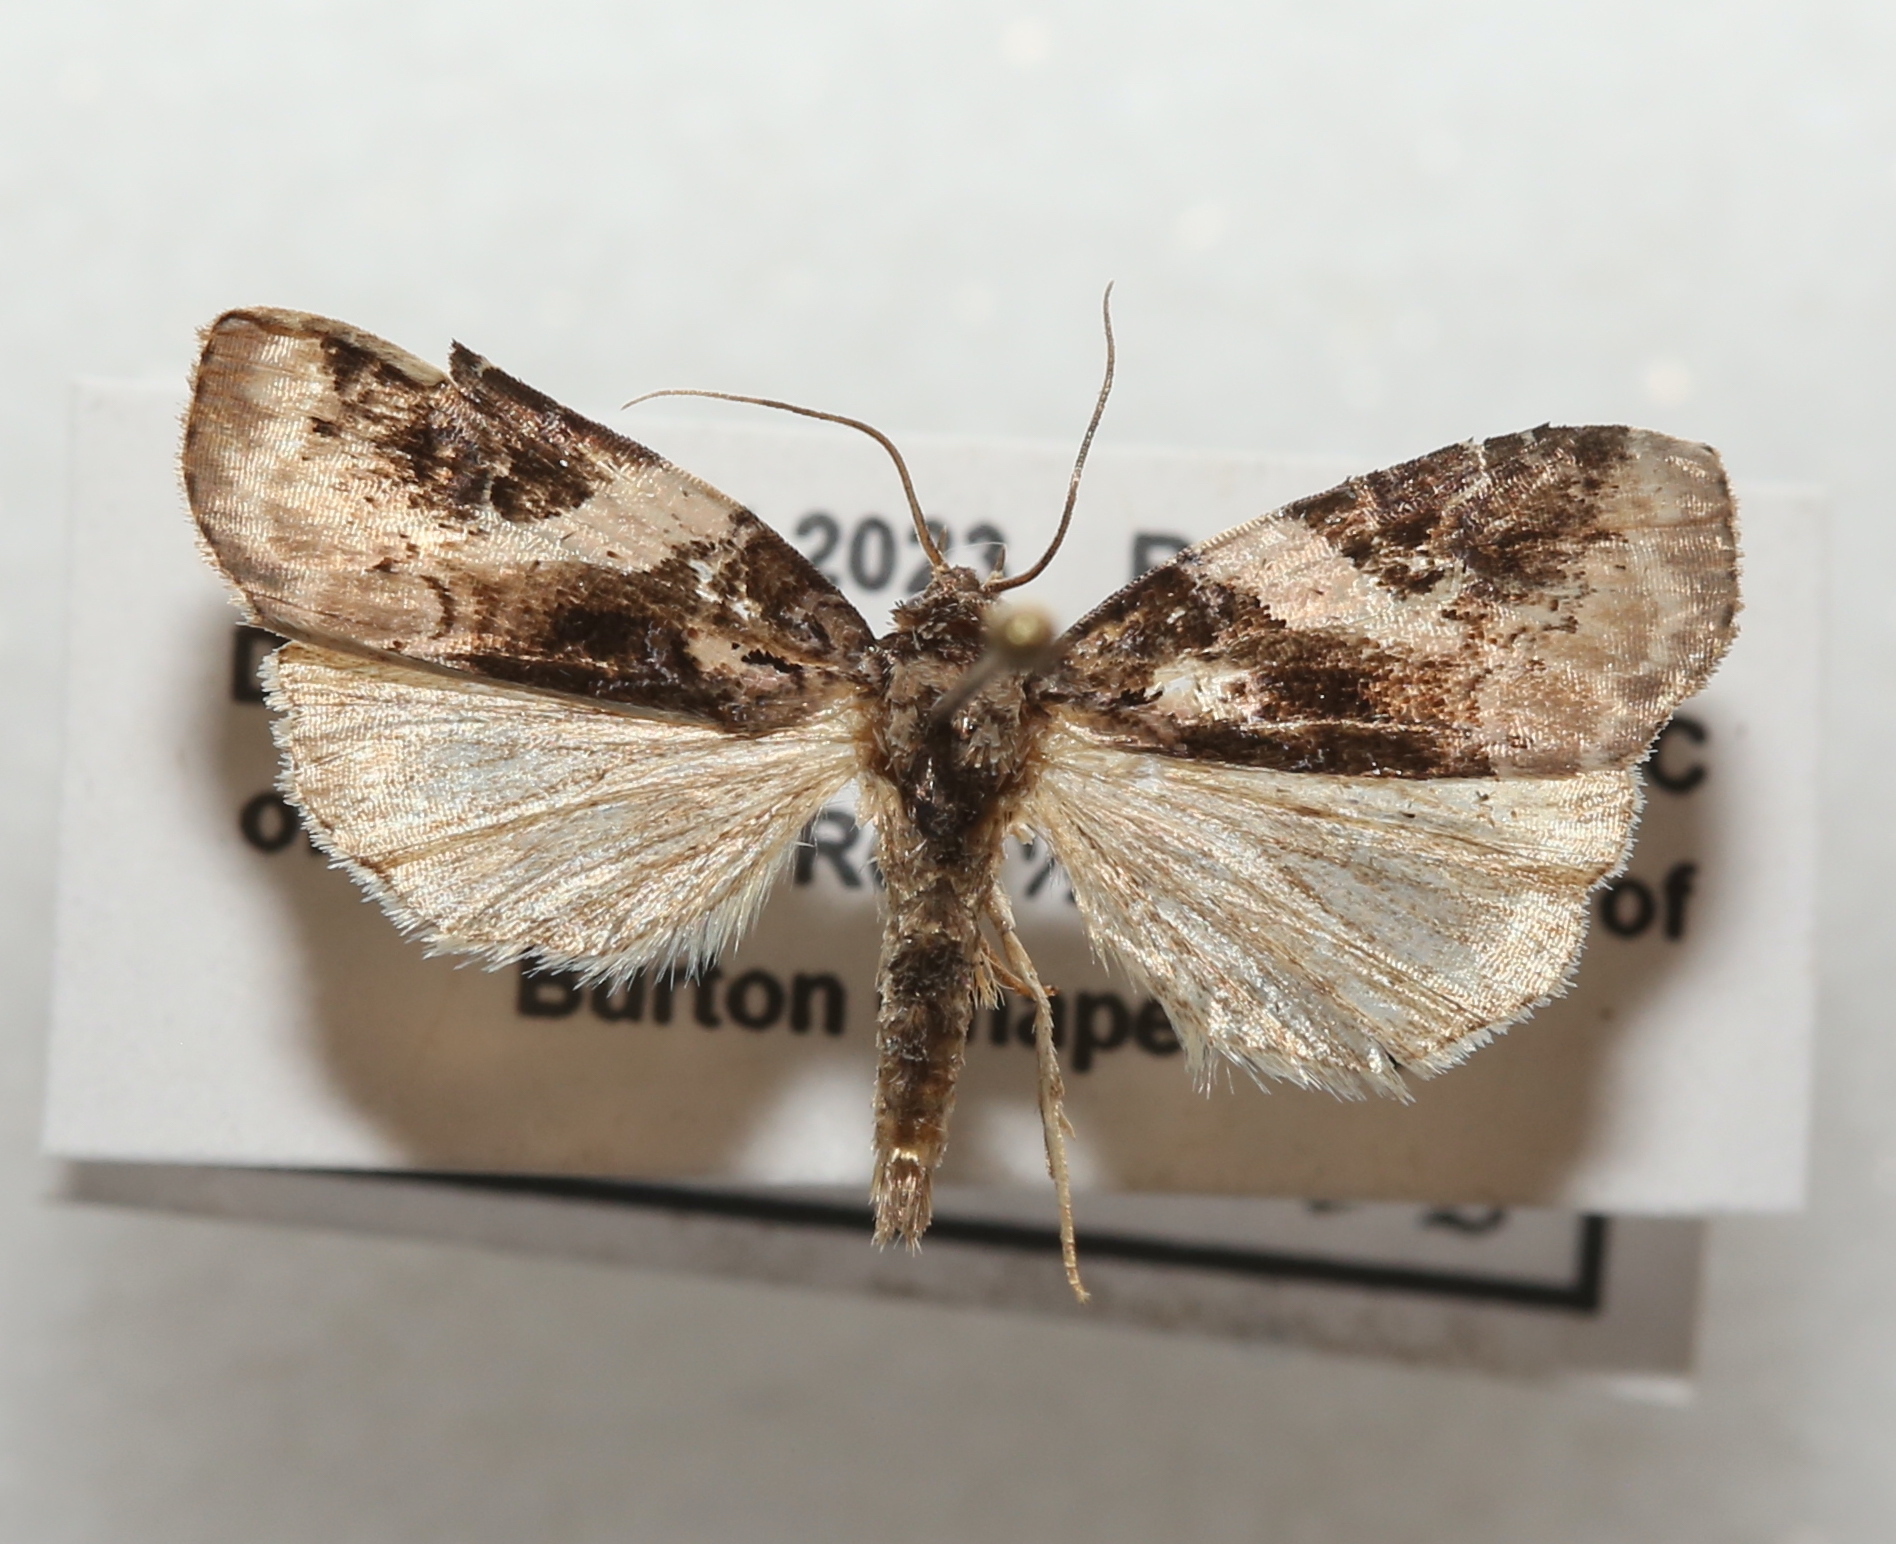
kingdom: Animalia
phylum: Arthropoda
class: Insecta
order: Lepidoptera
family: Noctuidae
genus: Pseudeustrotia
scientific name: Pseudeustrotia carneola
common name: Pink-barred lithacodia moth
